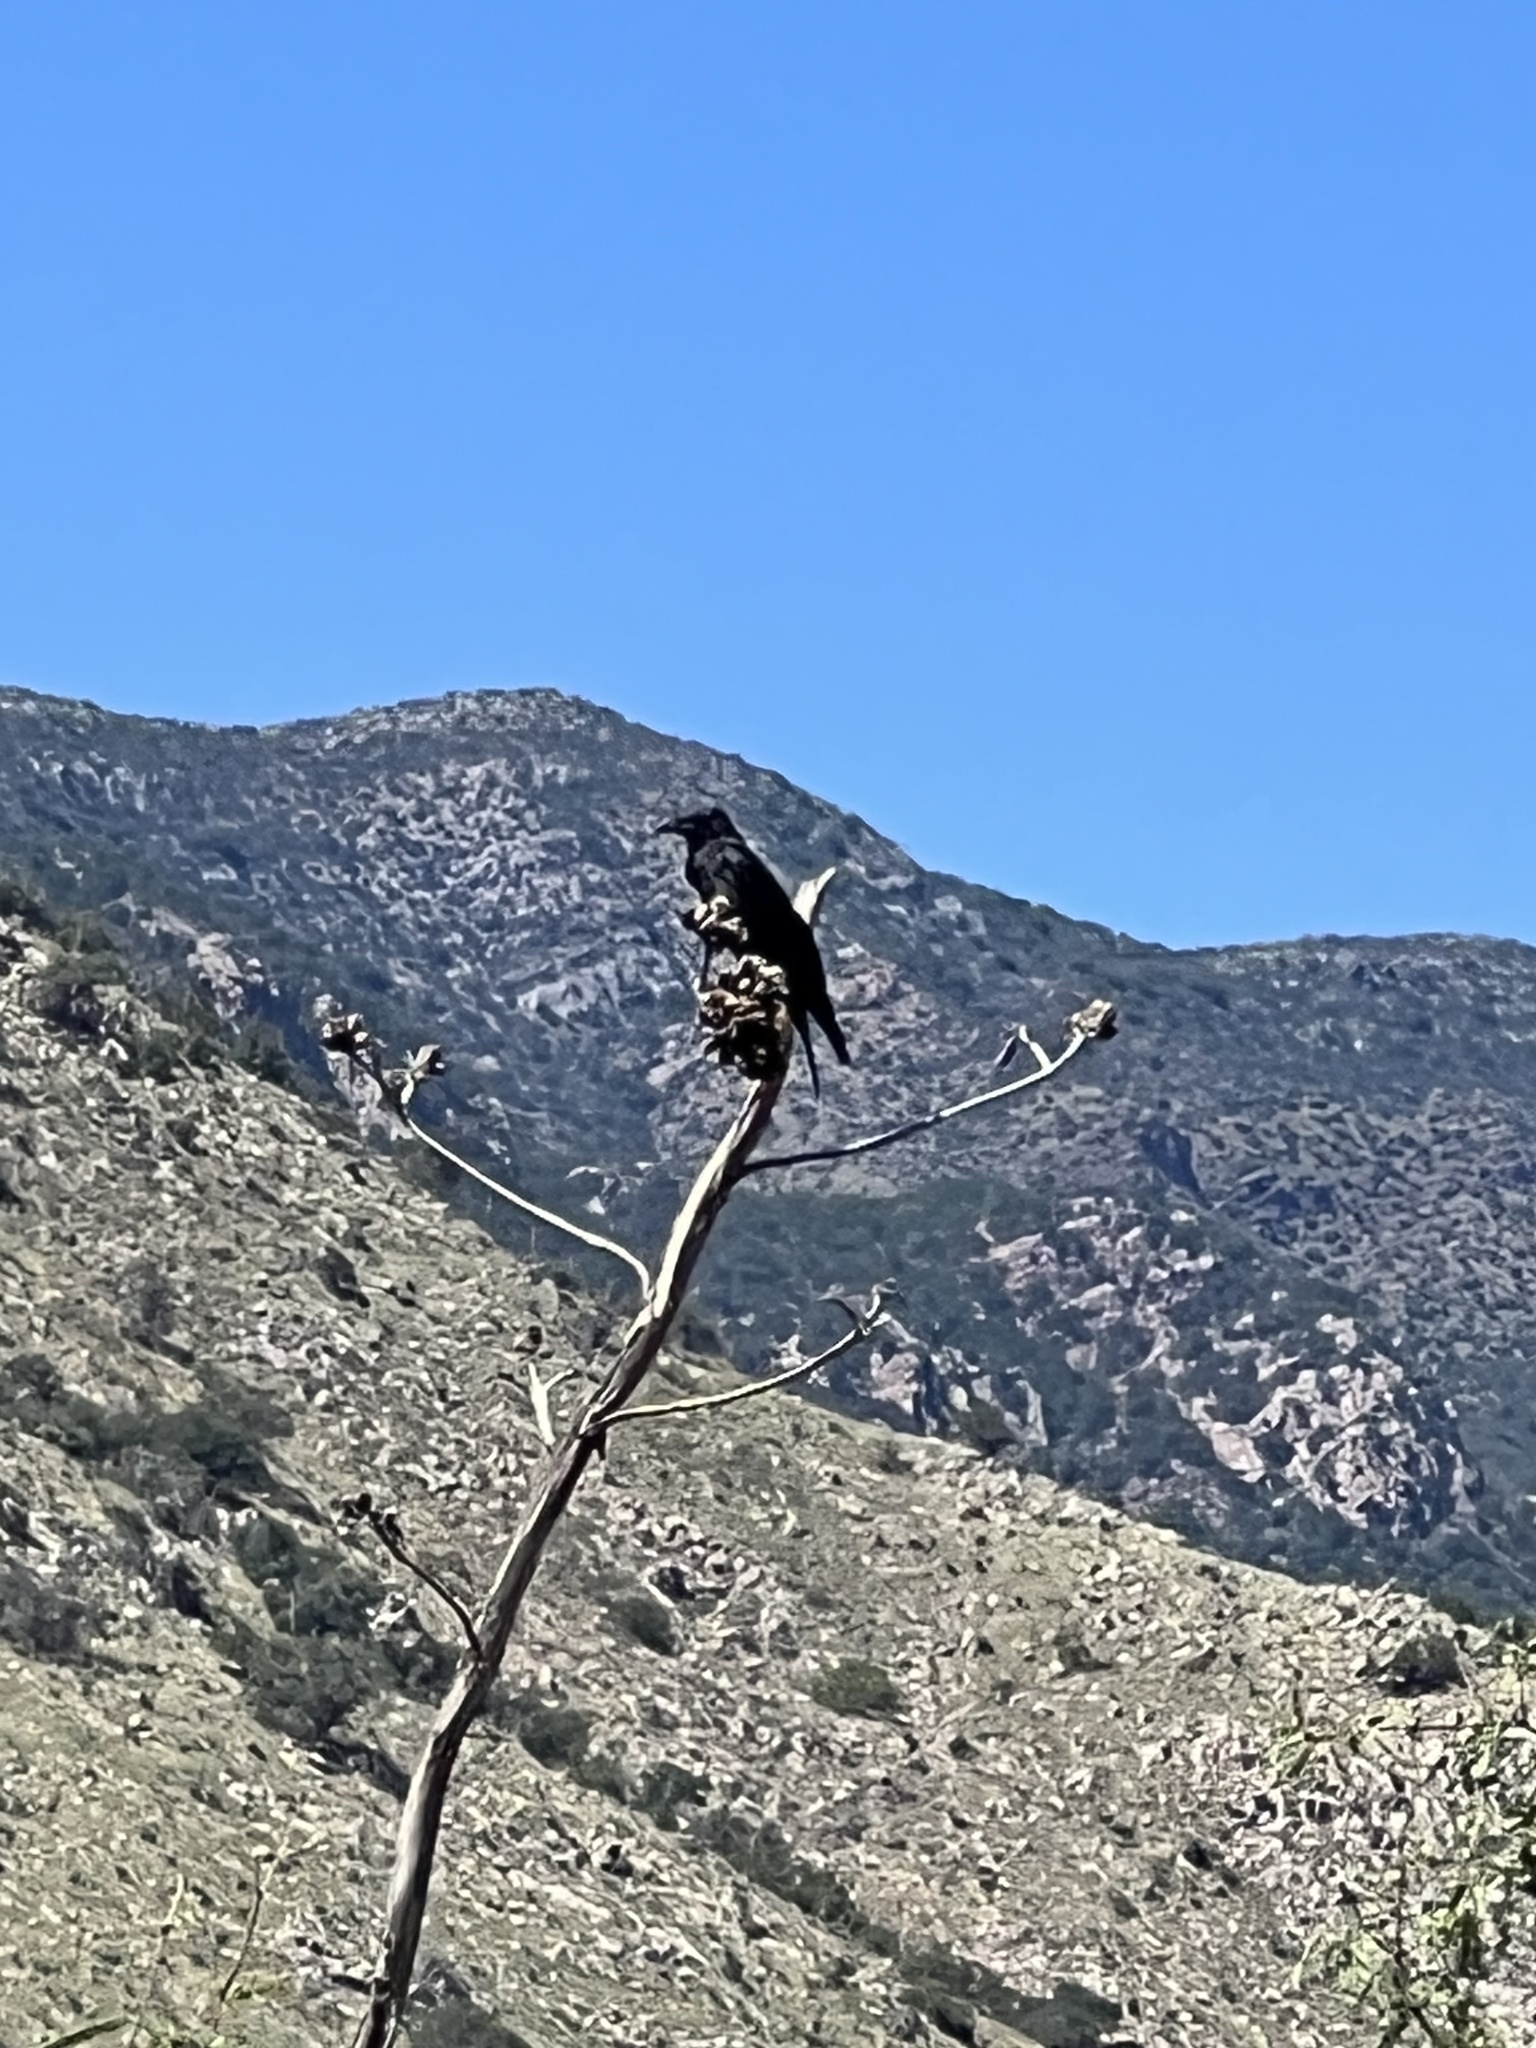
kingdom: Animalia
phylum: Chordata
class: Aves
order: Passeriformes
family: Corvidae
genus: Corvus
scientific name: Corvus corax
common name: Common raven
